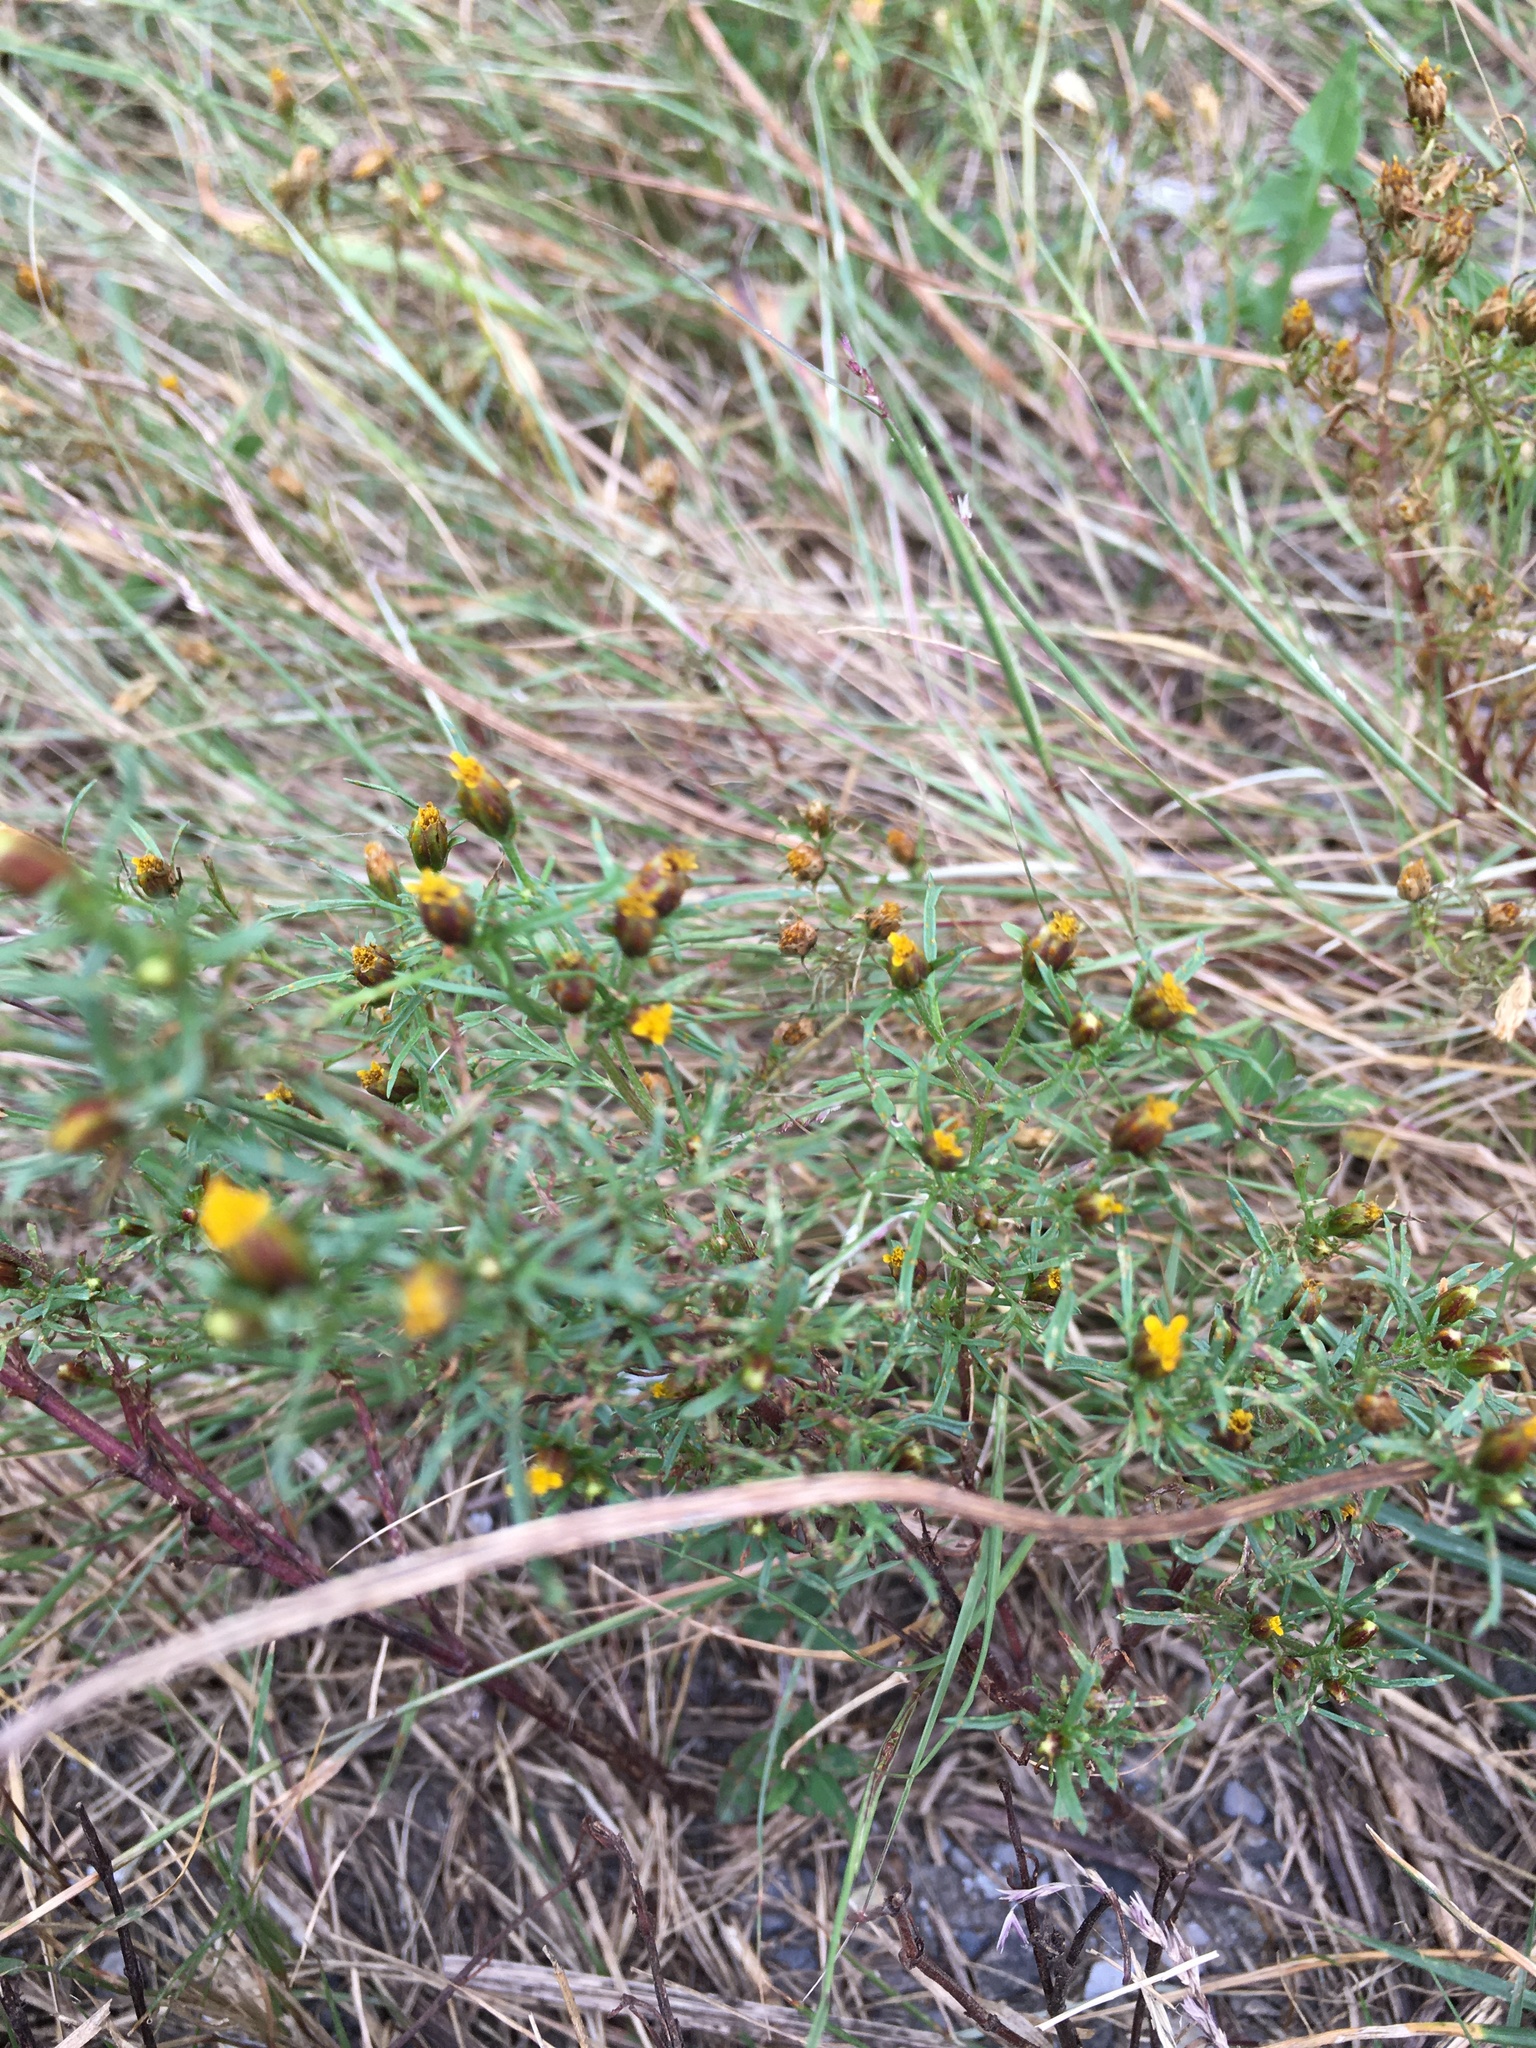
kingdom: Plantae
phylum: Tracheophyta
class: Magnoliopsida
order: Asterales
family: Asteraceae
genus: Dyssodia
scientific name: Dyssodia papposa
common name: Dogweed
